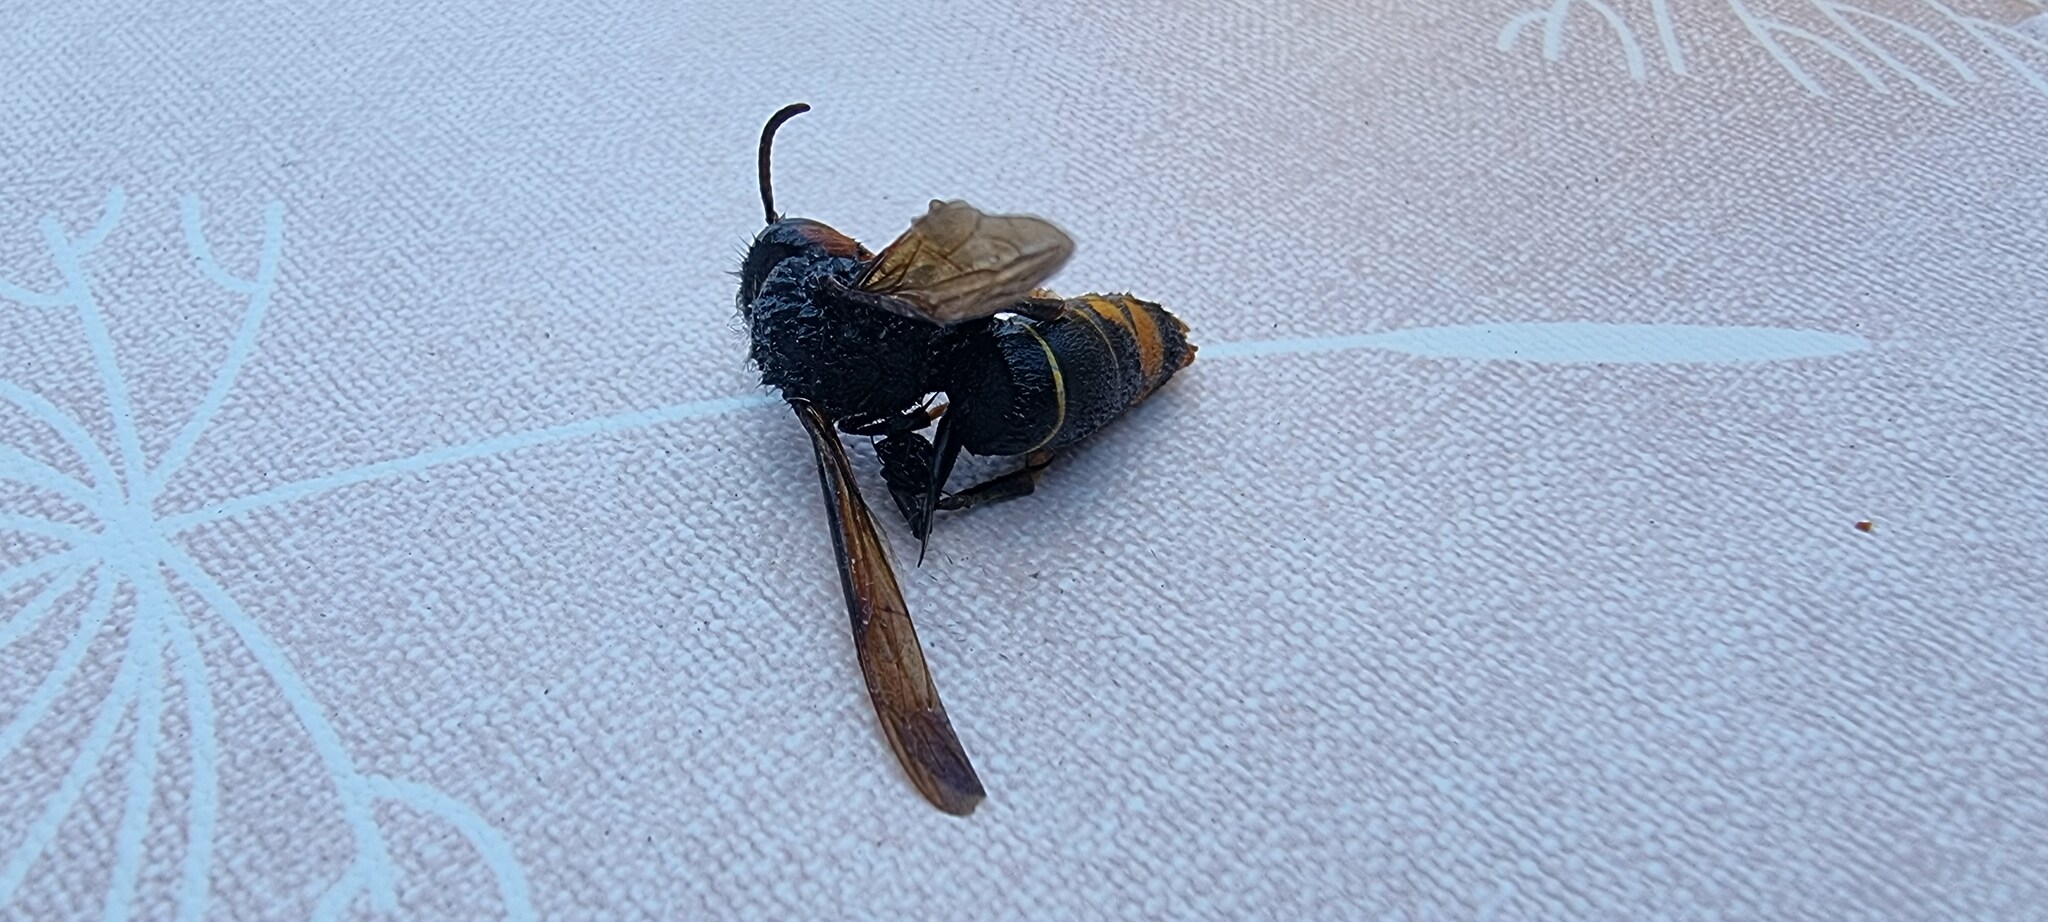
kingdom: Animalia
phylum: Arthropoda
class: Insecta
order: Hymenoptera
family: Vespidae
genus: Vespa
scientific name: Vespa velutina
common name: Asian hornet
